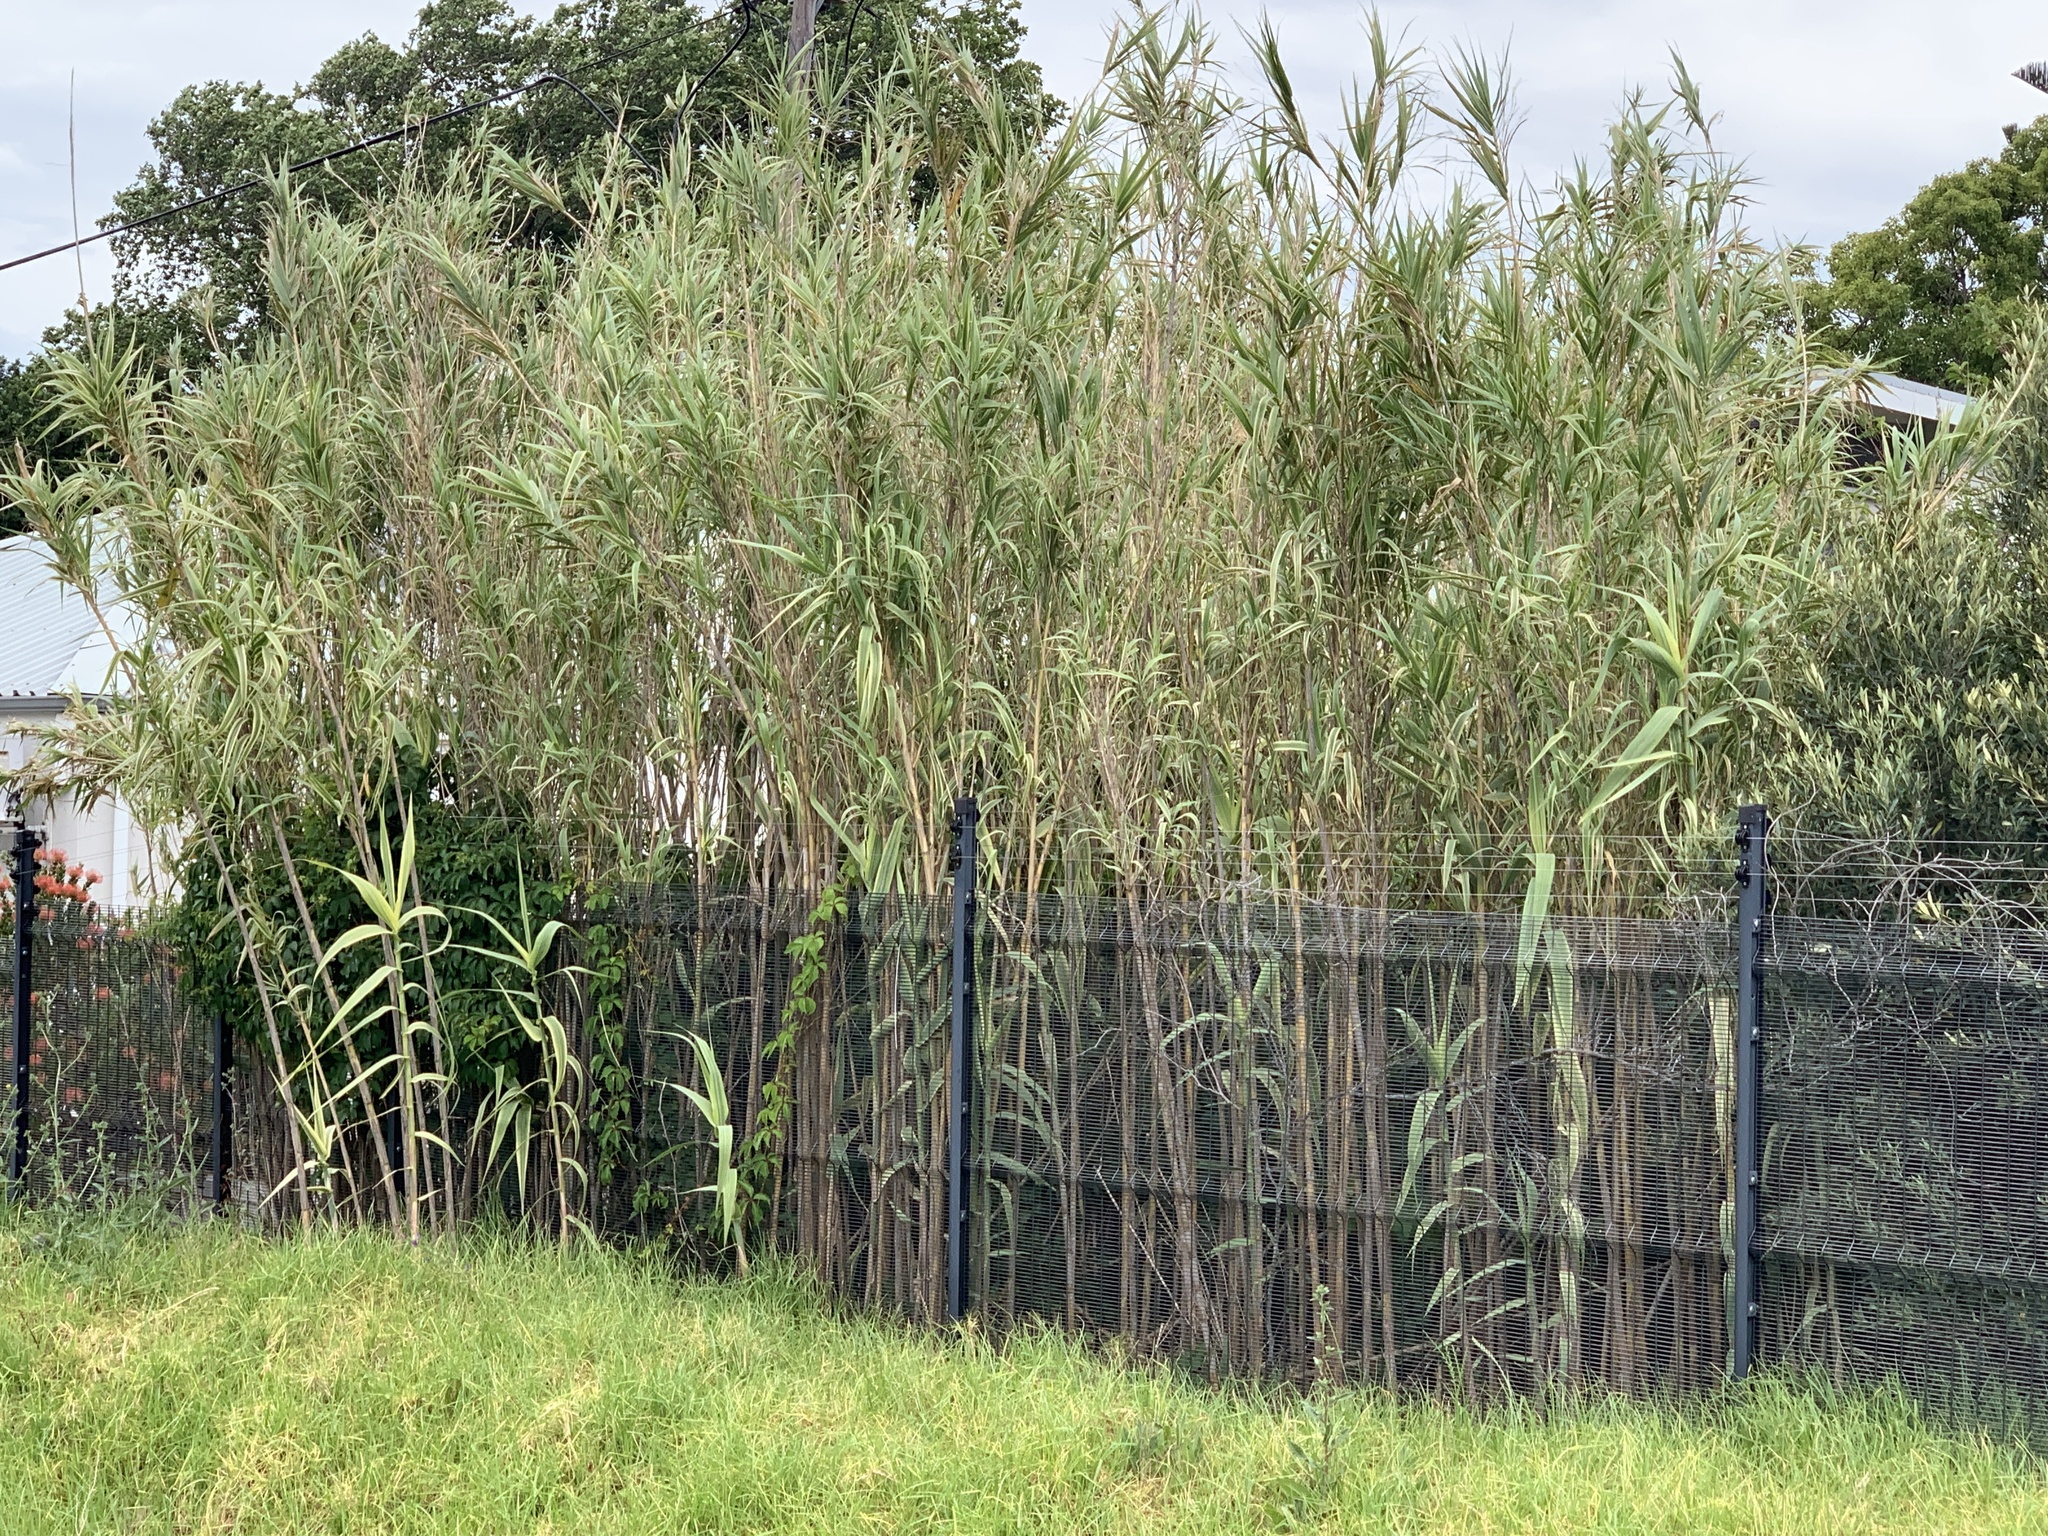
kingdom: Plantae
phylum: Tracheophyta
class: Liliopsida
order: Poales
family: Poaceae
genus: Arundo
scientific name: Arundo donax
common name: Giant reed
